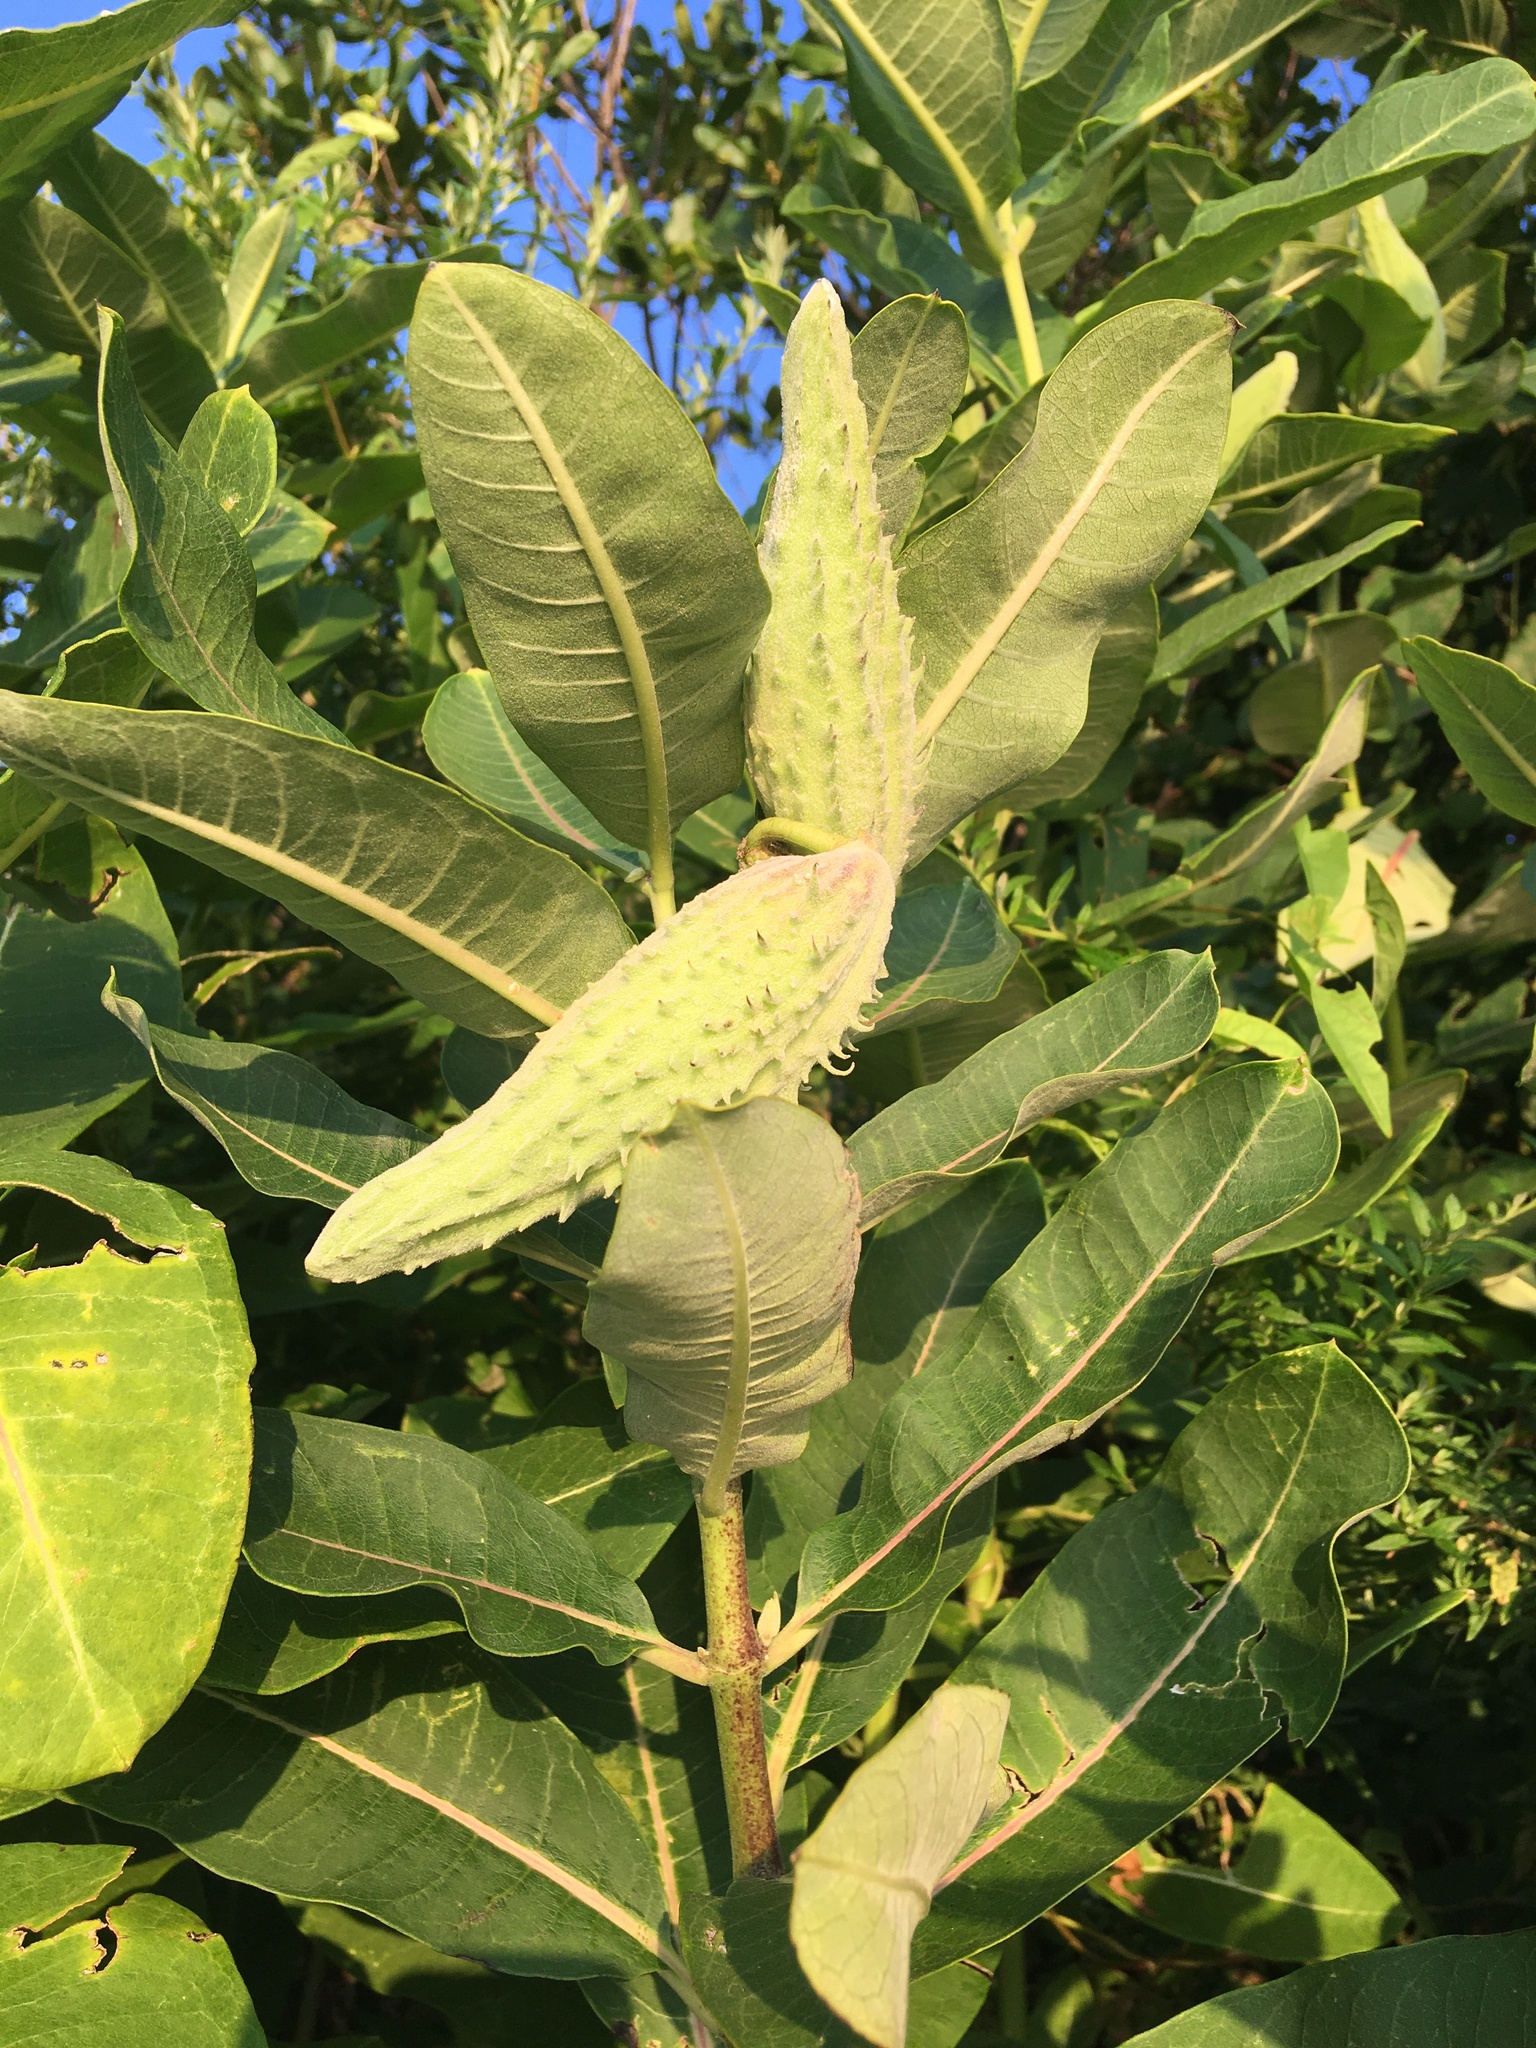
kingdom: Plantae
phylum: Tracheophyta
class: Magnoliopsida
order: Gentianales
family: Apocynaceae
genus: Asclepias
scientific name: Asclepias syriaca
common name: Common milkweed
